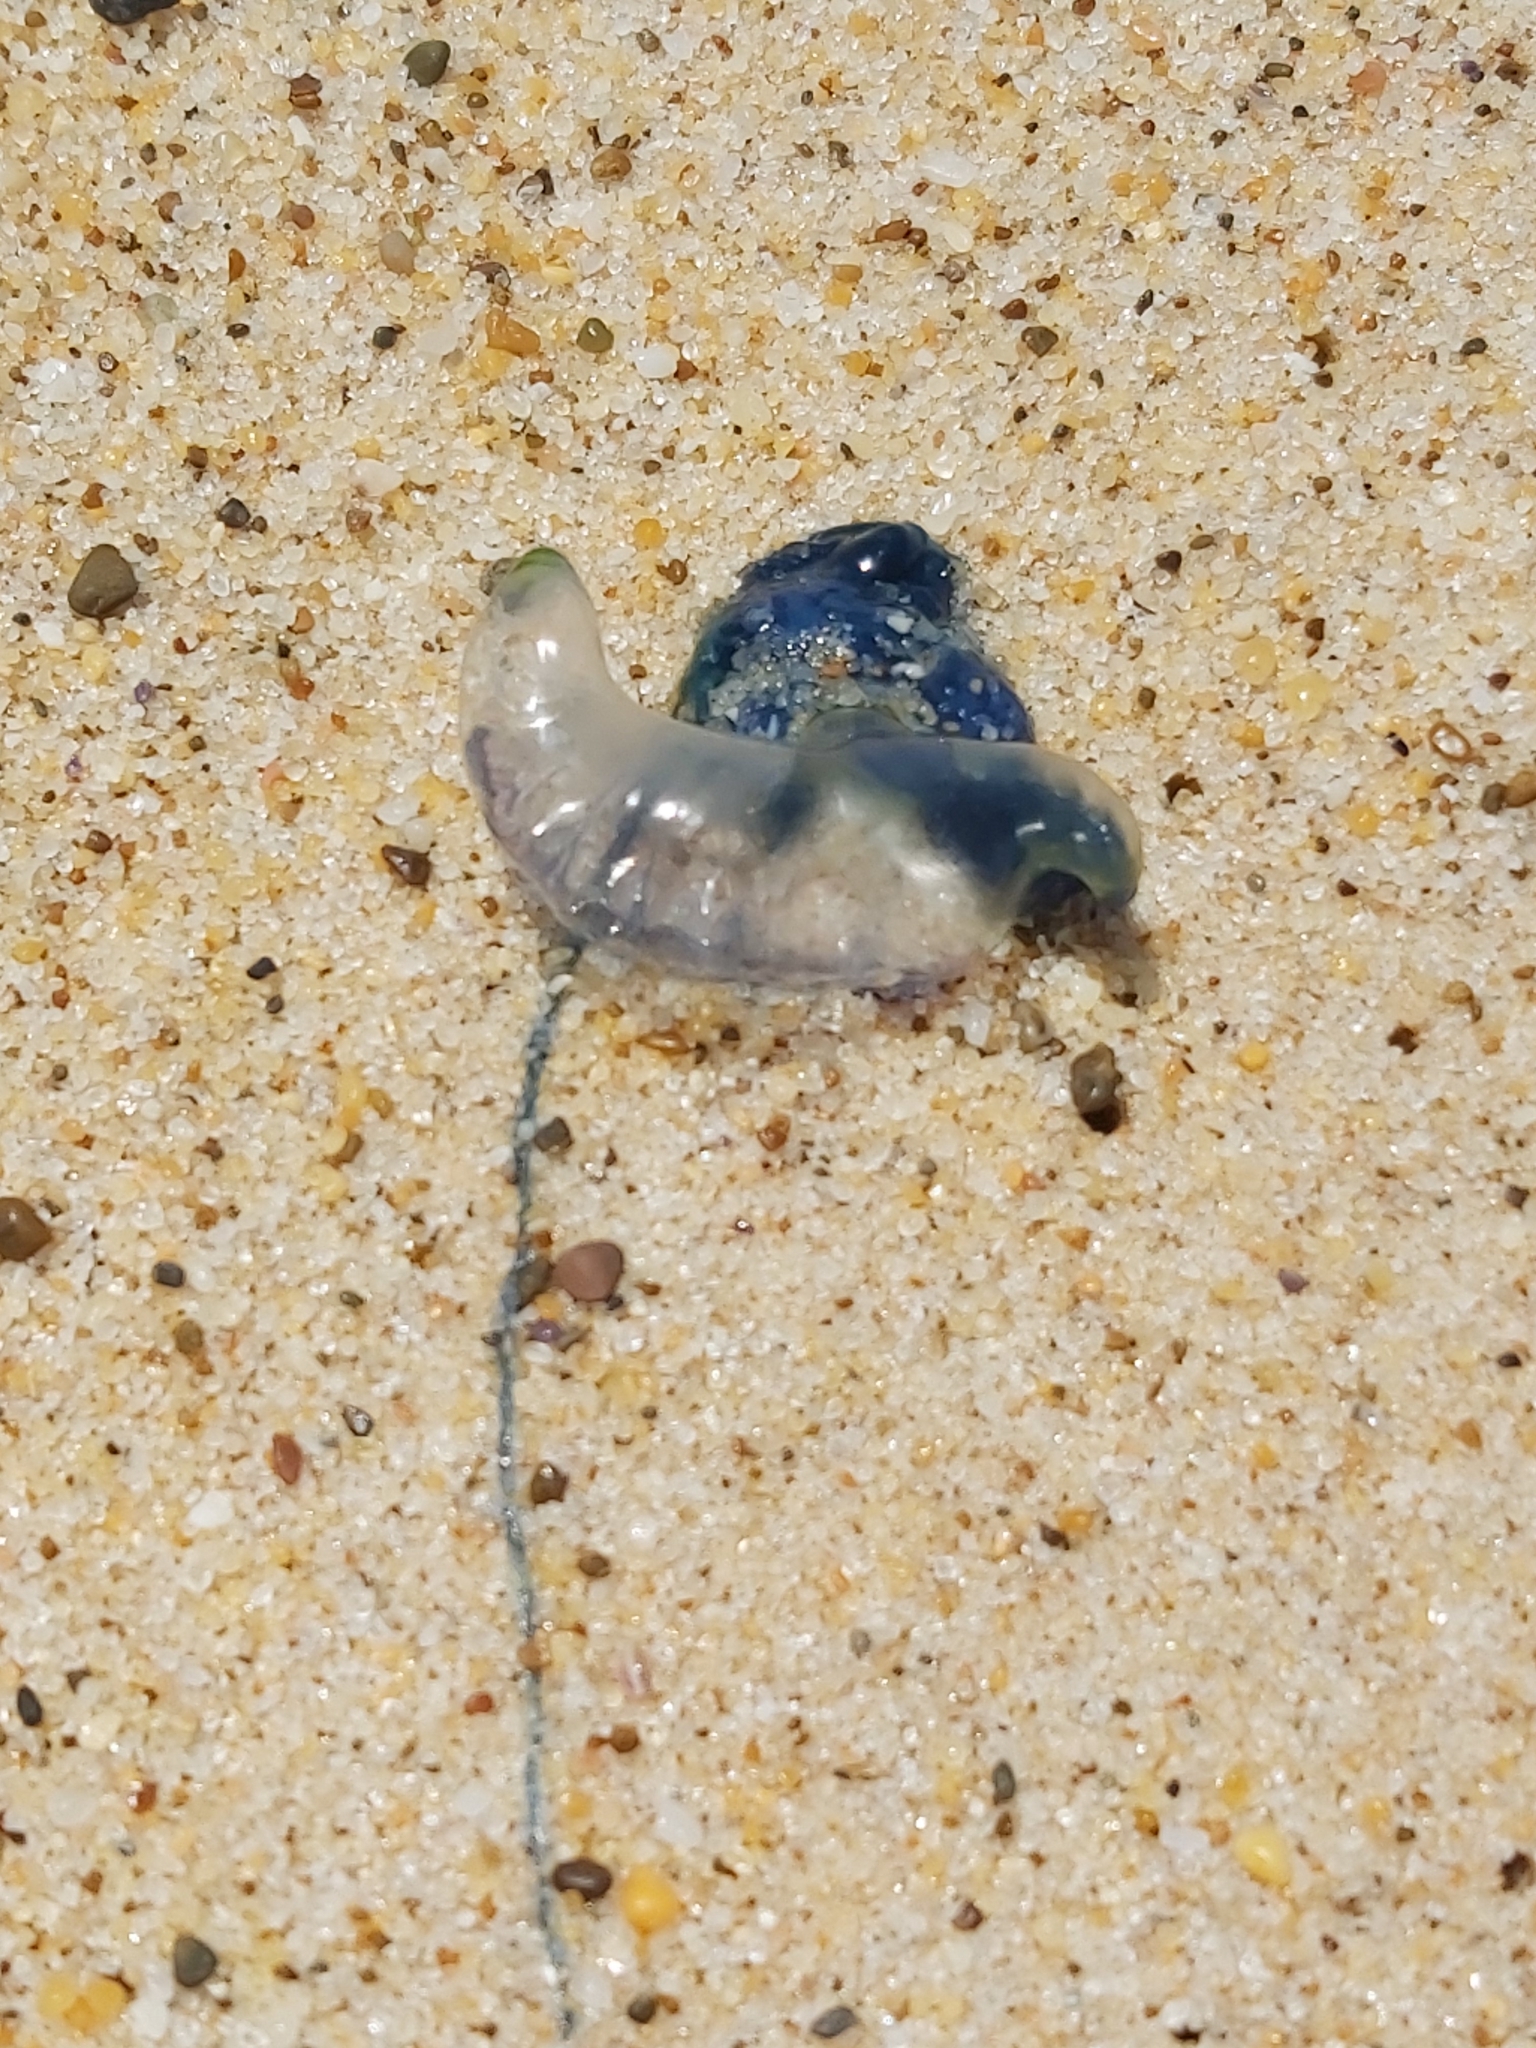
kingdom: Animalia
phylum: Cnidaria
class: Hydrozoa
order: Siphonophorae
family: Physaliidae
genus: Physalia
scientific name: Physalia physalis
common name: Portuguese man-of-war
